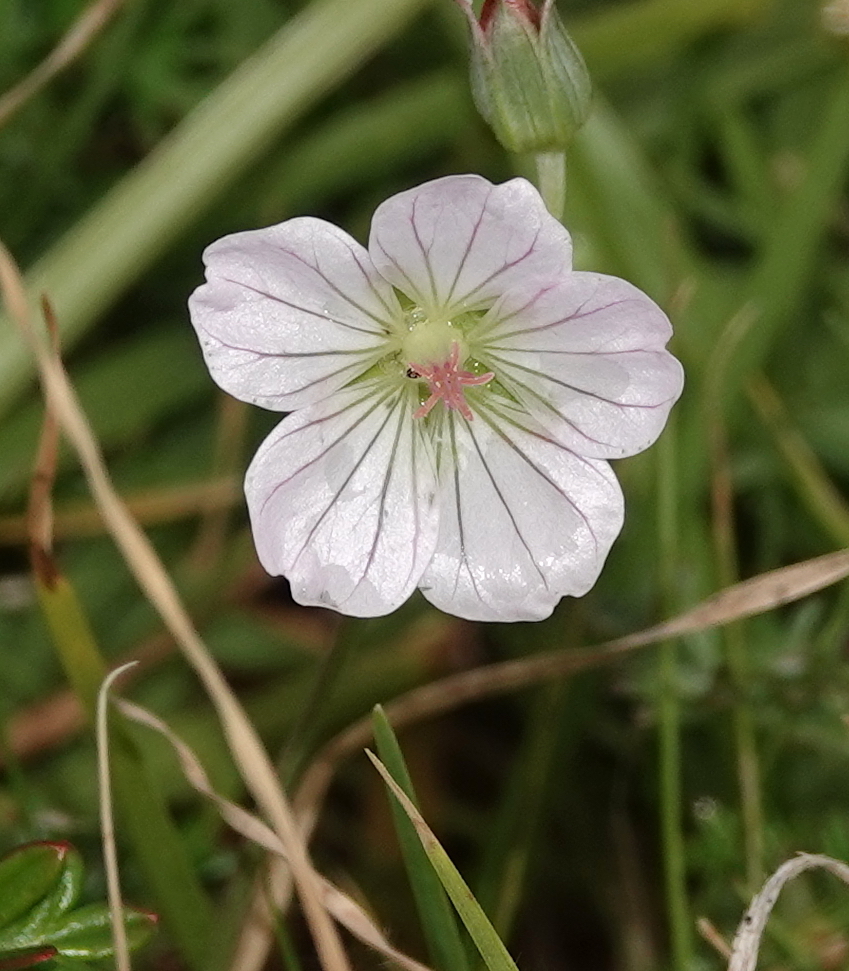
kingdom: Plantae
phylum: Tracheophyta
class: Magnoliopsida
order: Geraniales
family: Geraniaceae
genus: Geranium
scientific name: Geranium incanum
